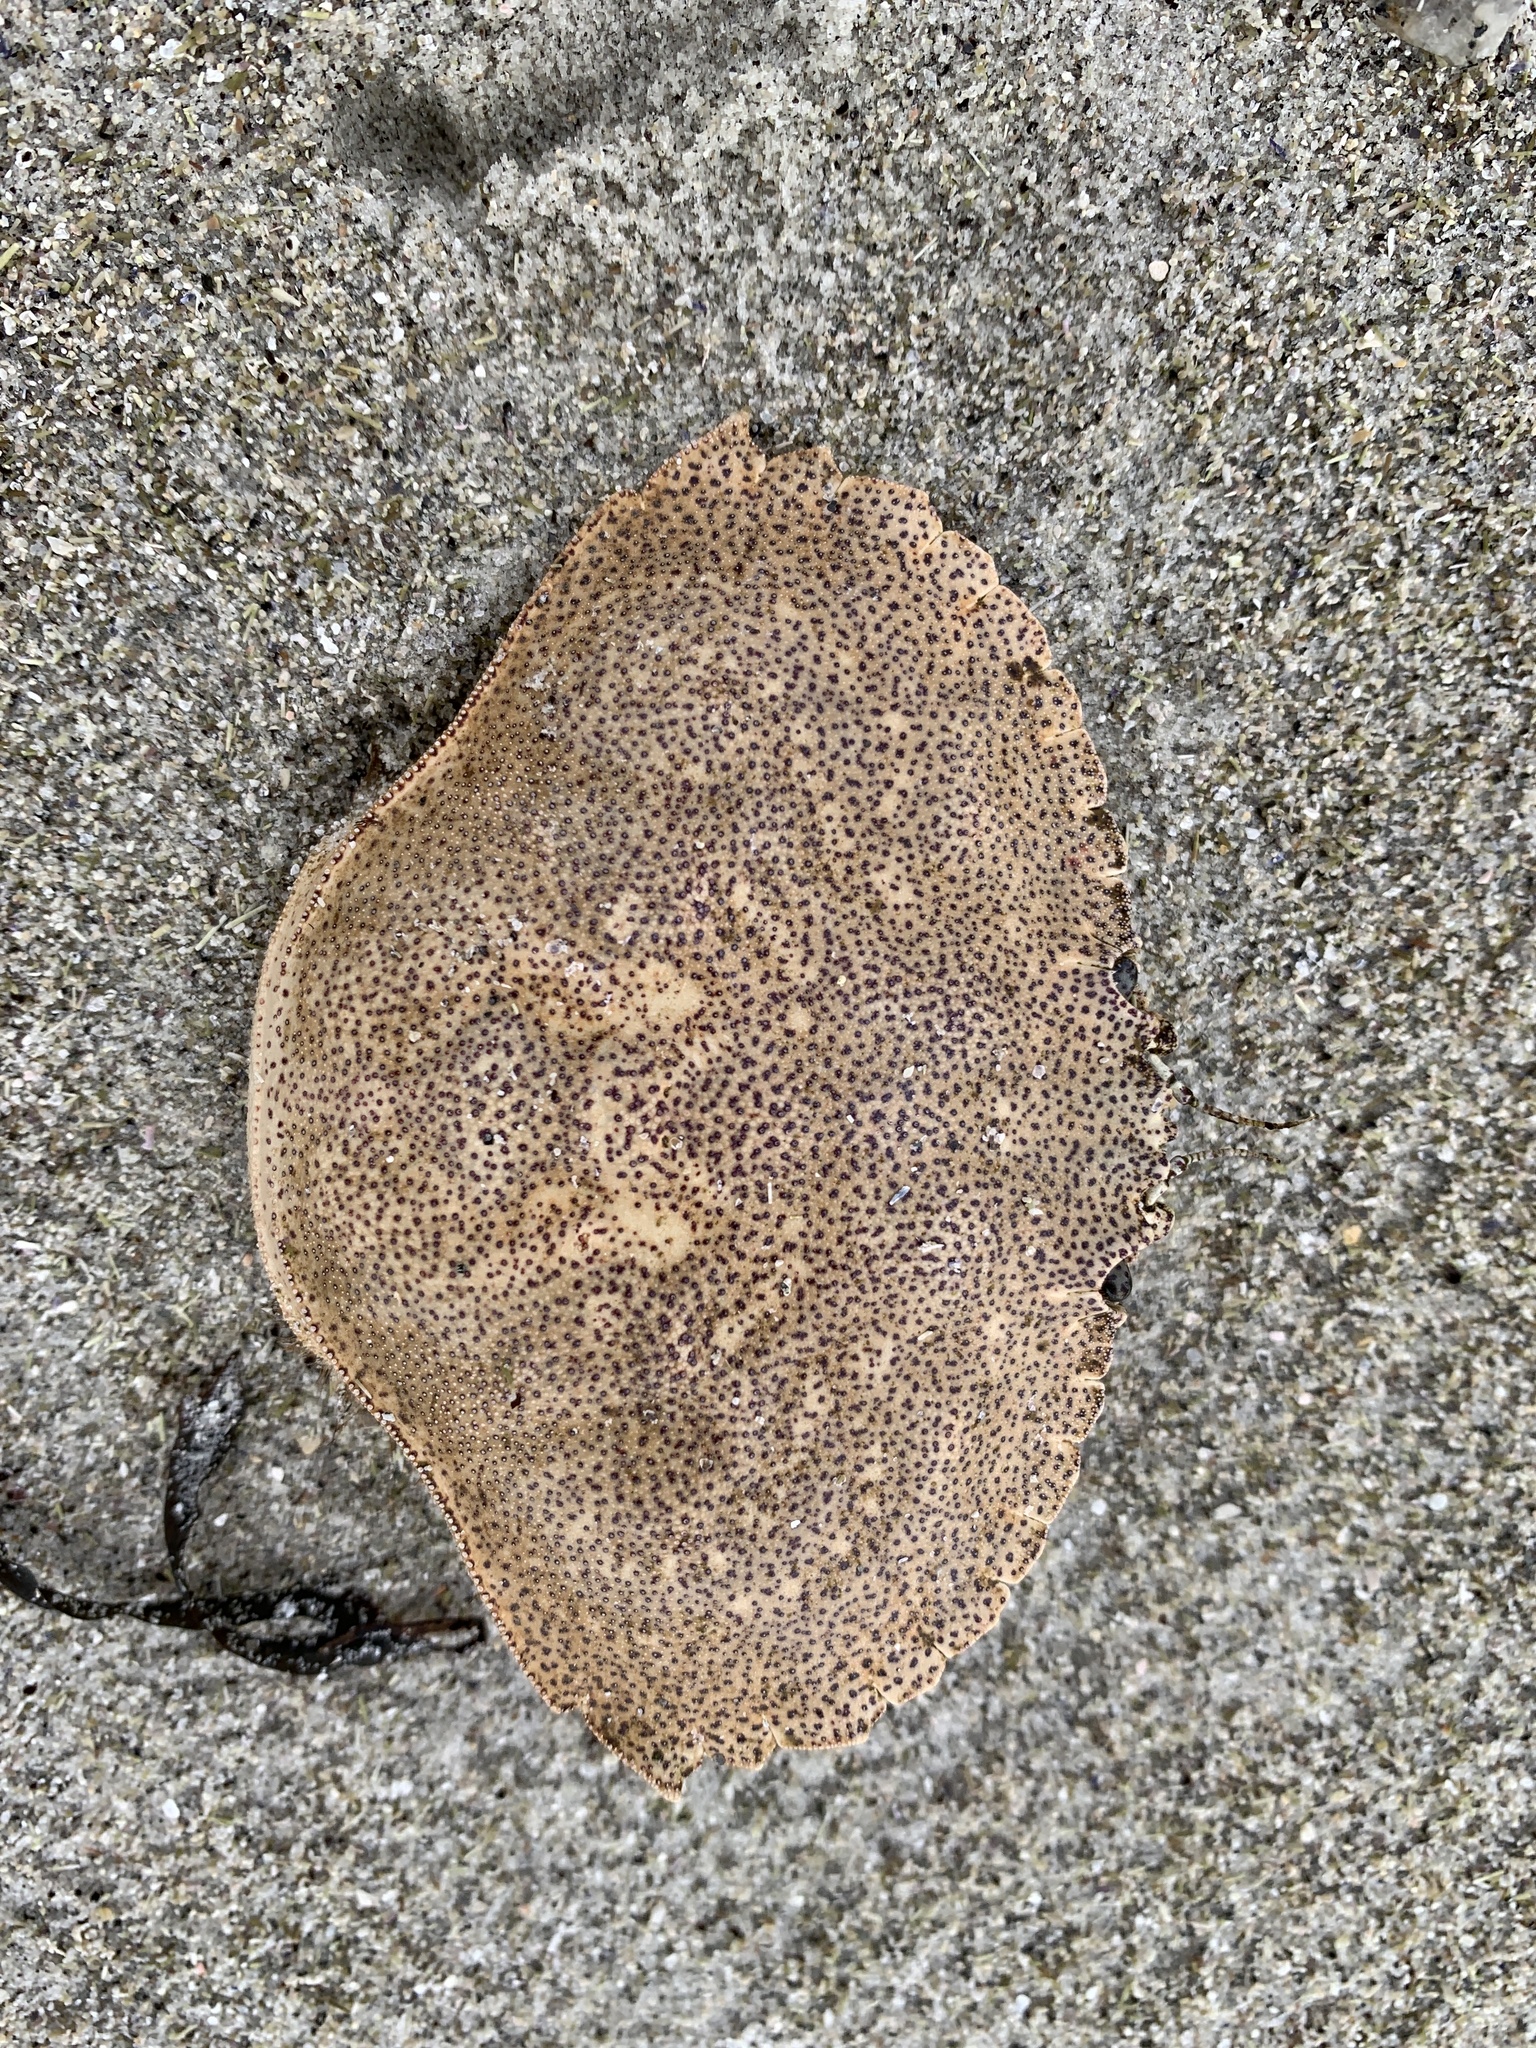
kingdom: Animalia
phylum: Arthropoda
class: Malacostraca
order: Decapoda
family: Cancridae
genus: Cancer
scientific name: Cancer irroratus
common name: Atlantic rock crab
